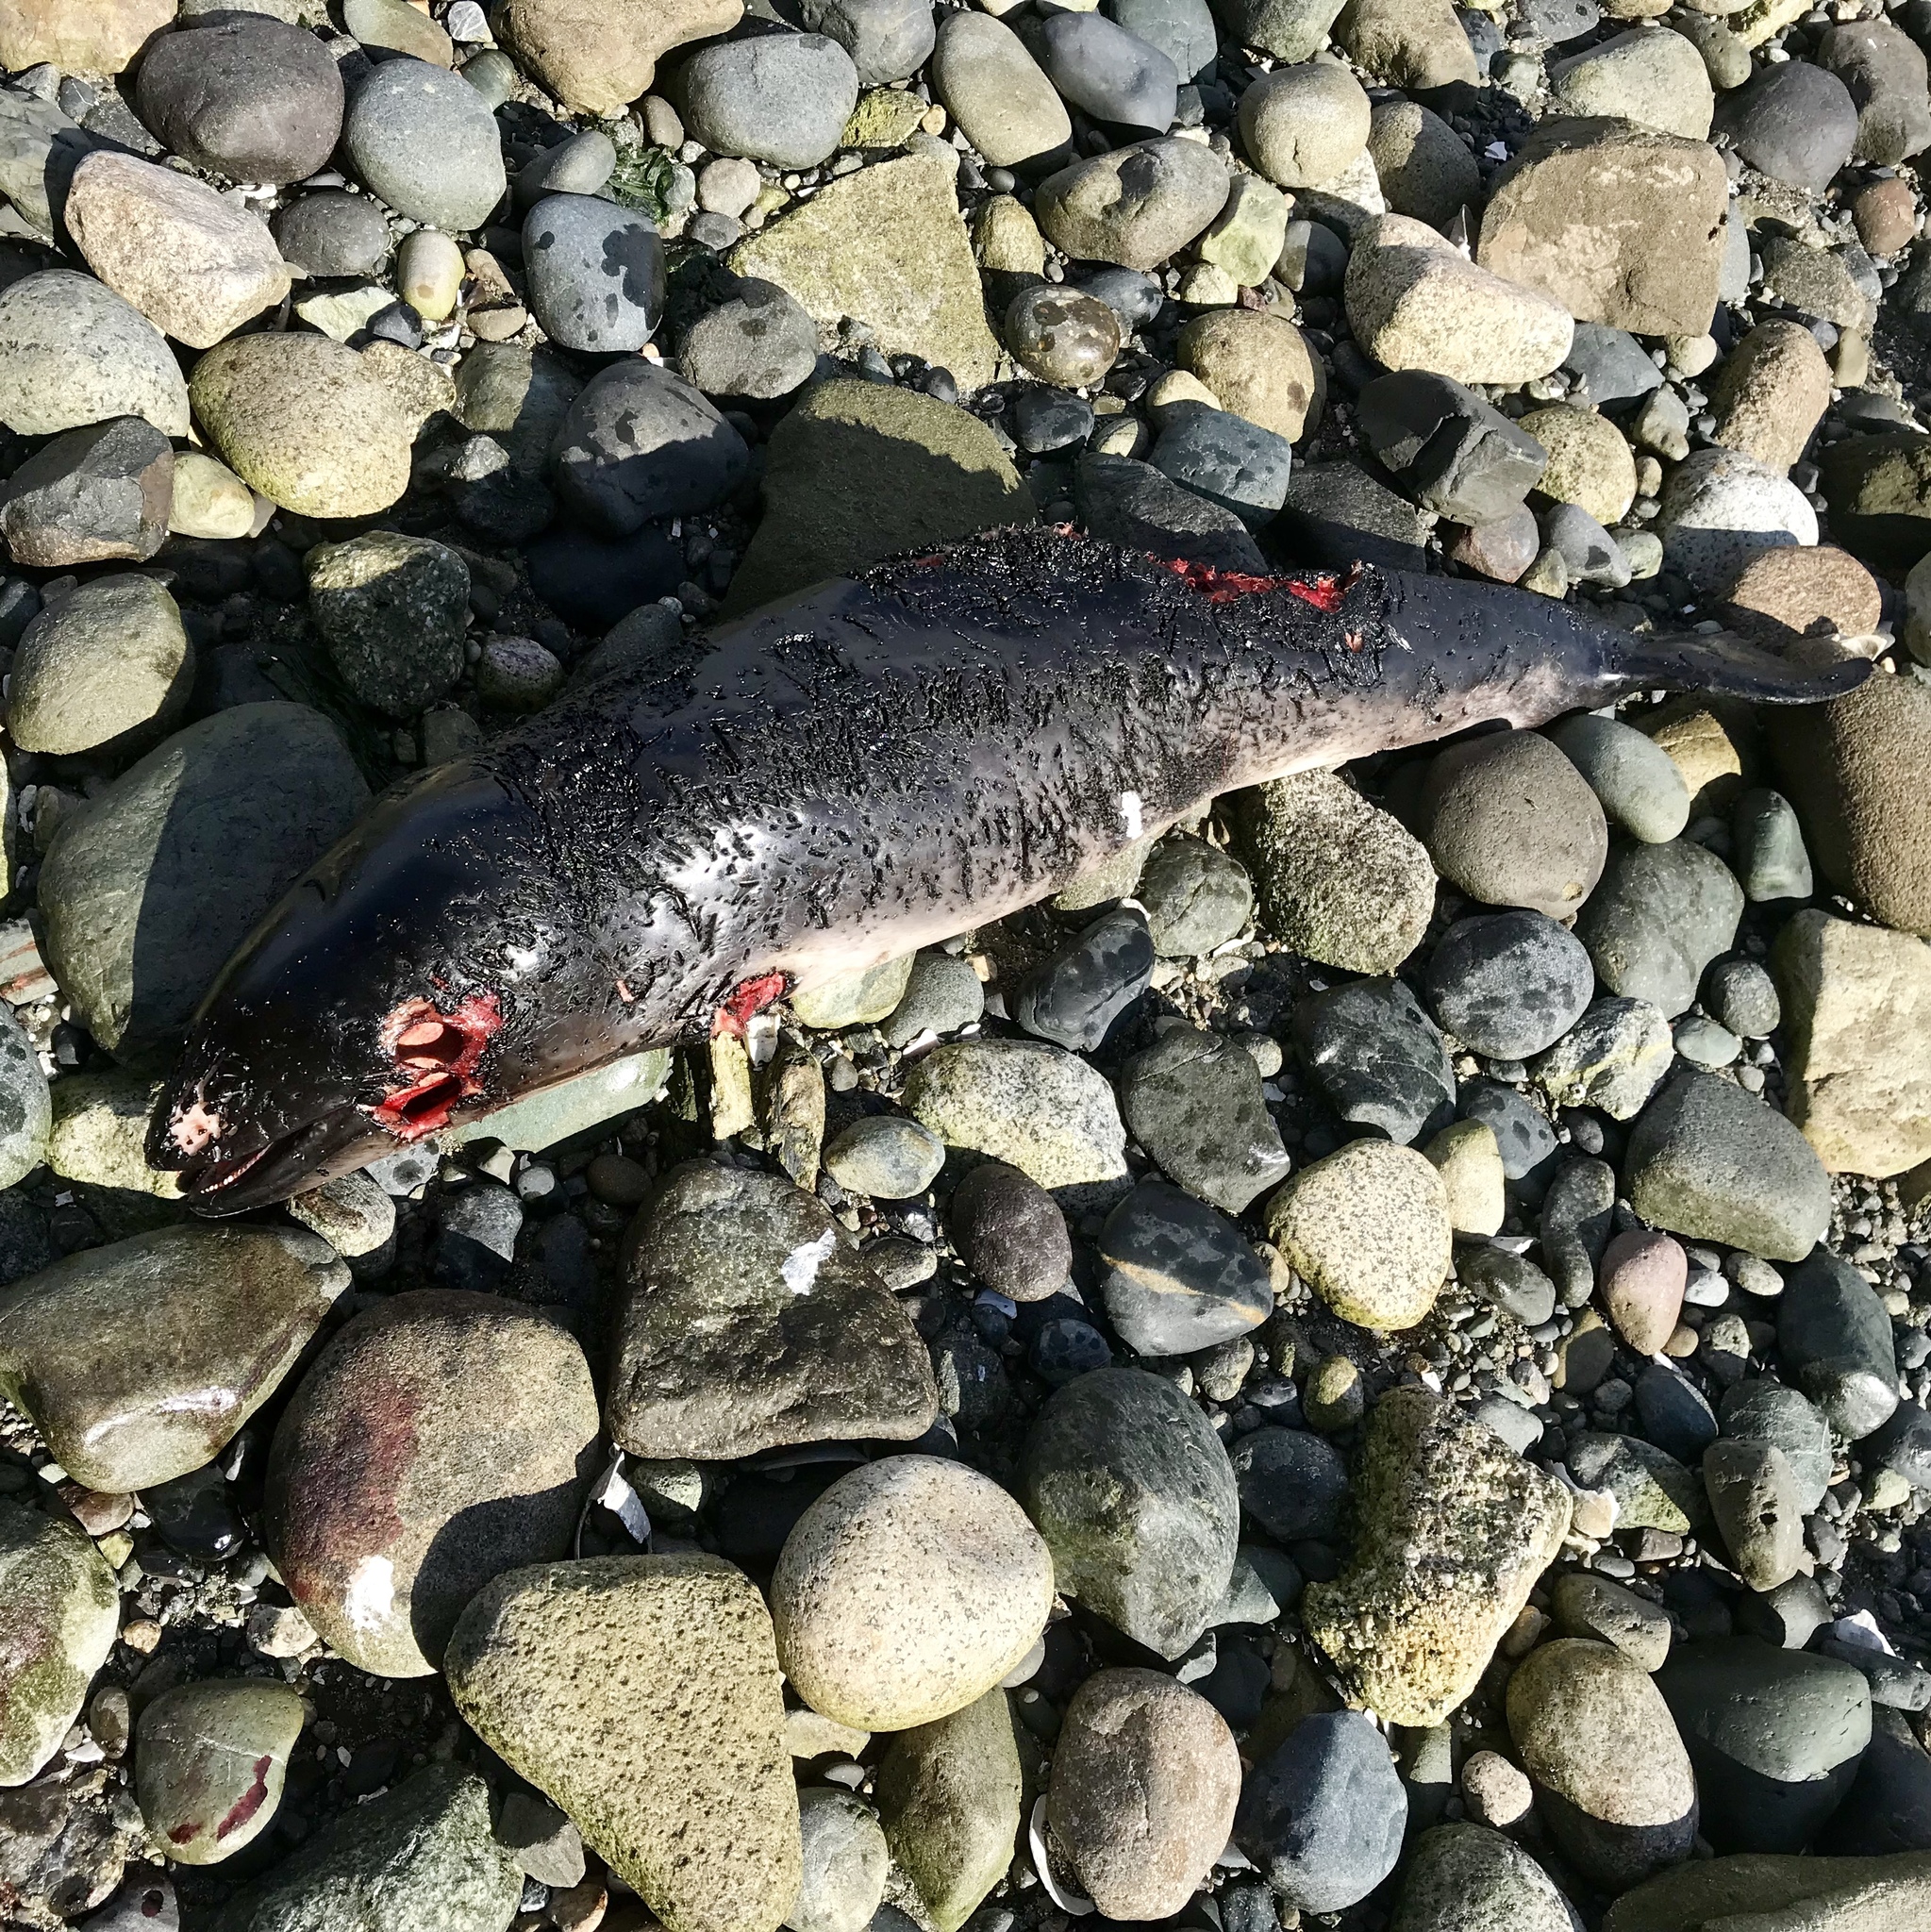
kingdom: Animalia
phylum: Chordata
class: Mammalia
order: Cetacea
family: Phocoenidae
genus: Phocoena
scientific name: Phocoena phocoena
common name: Harbor porpoise
